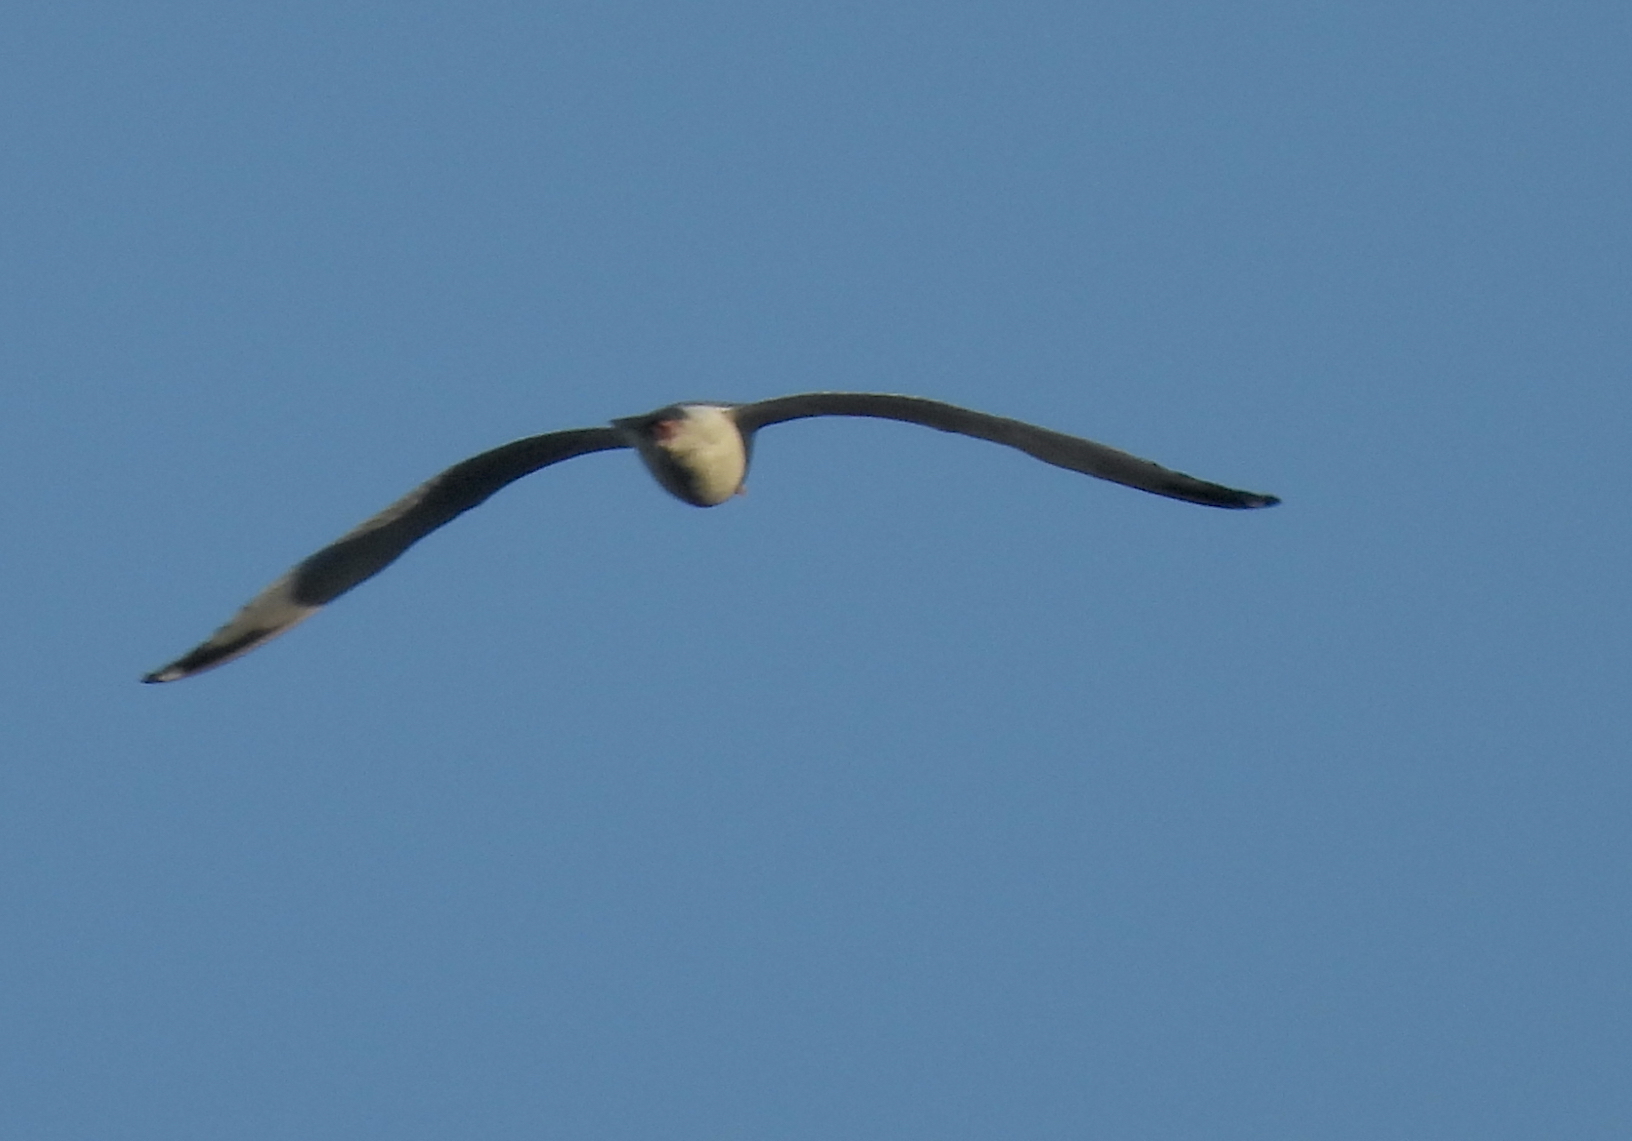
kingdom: Animalia
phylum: Chordata
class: Aves
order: Charadriiformes
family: Laridae
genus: Larus
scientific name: Larus argentatus
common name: Herring gull
